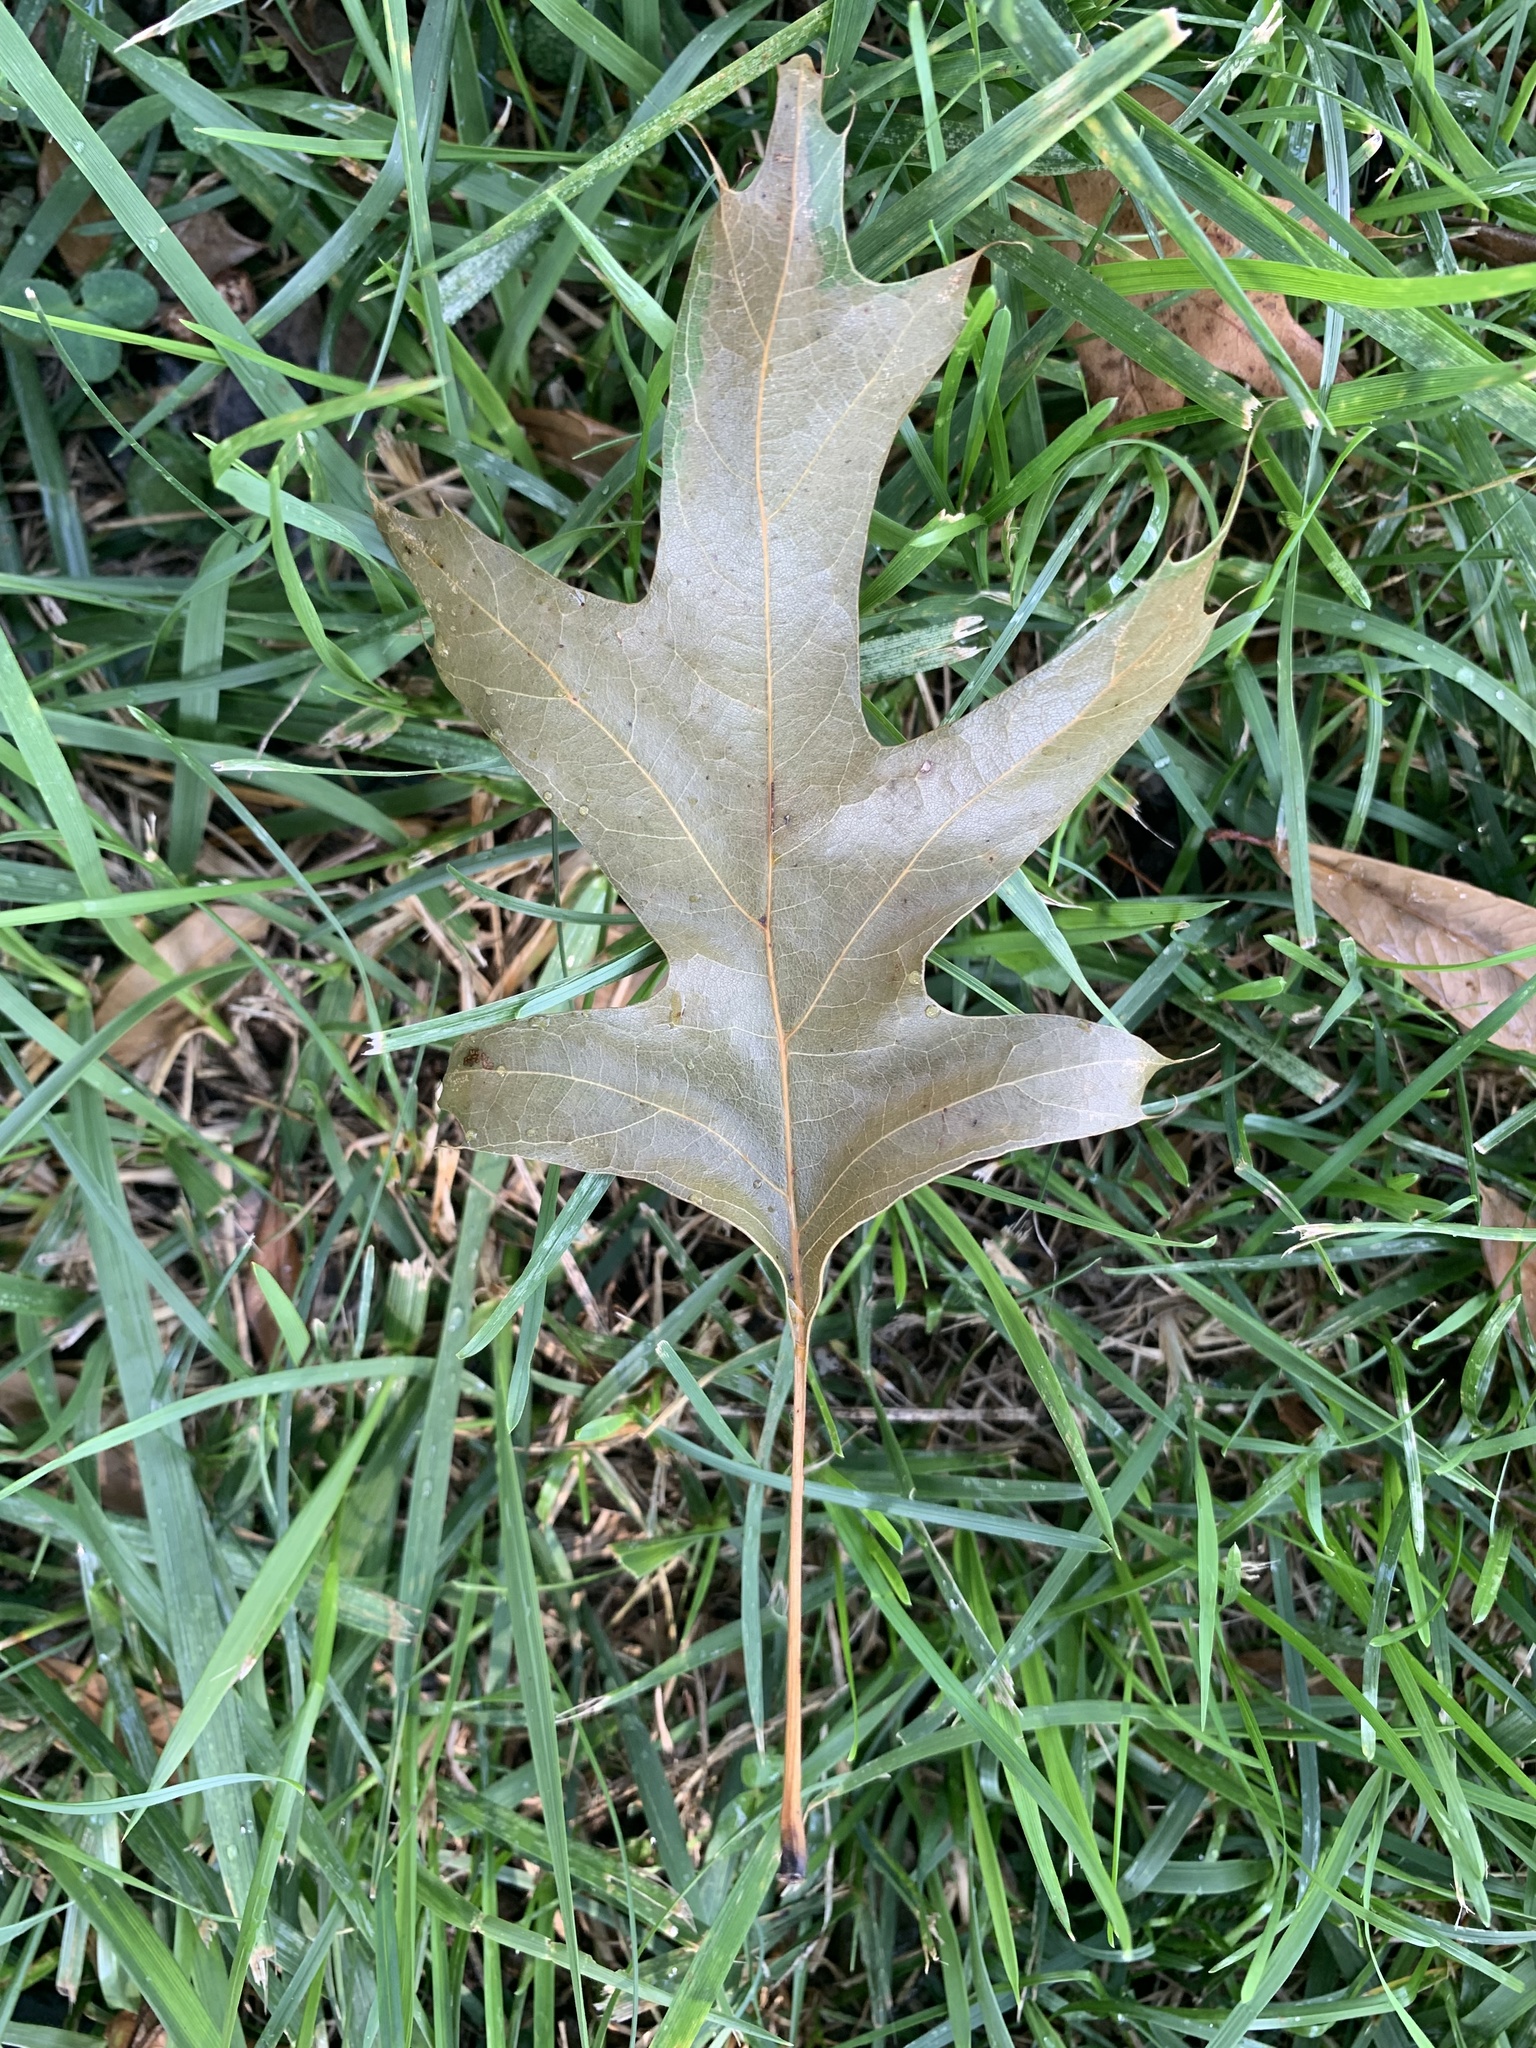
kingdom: Plantae
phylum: Tracheophyta
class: Magnoliopsida
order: Fagales
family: Fagaceae
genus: Quercus
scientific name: Quercus palustris
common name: Pin oak
